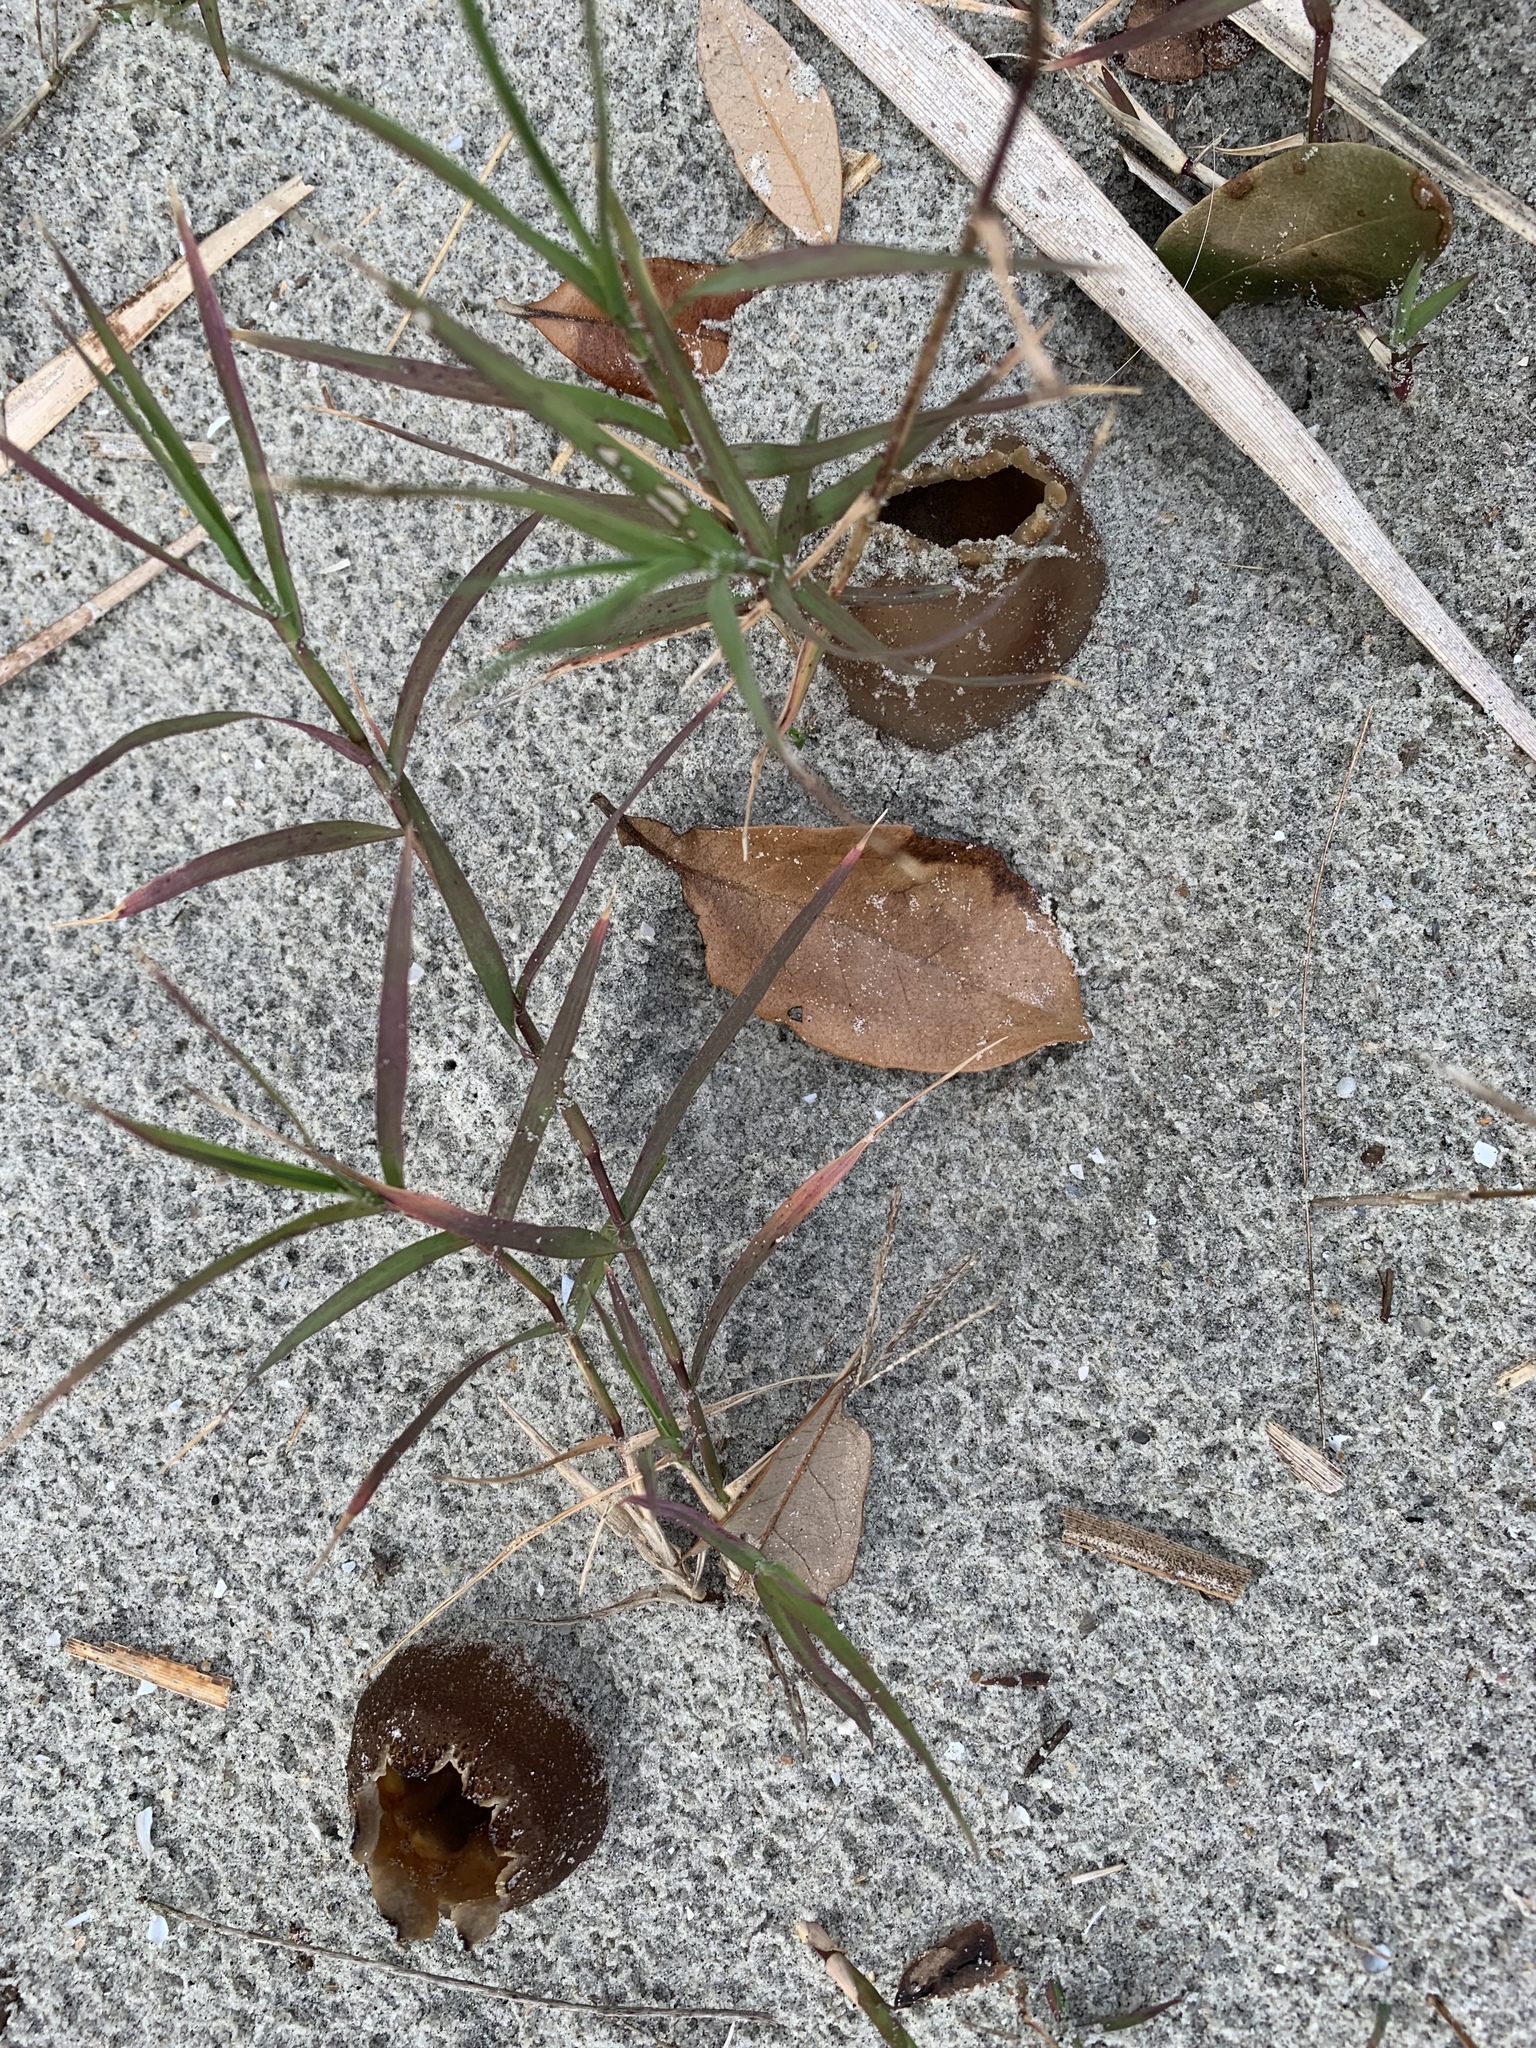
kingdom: Fungi
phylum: Ascomycota
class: Pezizomycetes
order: Pezizales
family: Pezizaceae
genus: Peziza
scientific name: Peziza ammophila
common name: Dune cup
